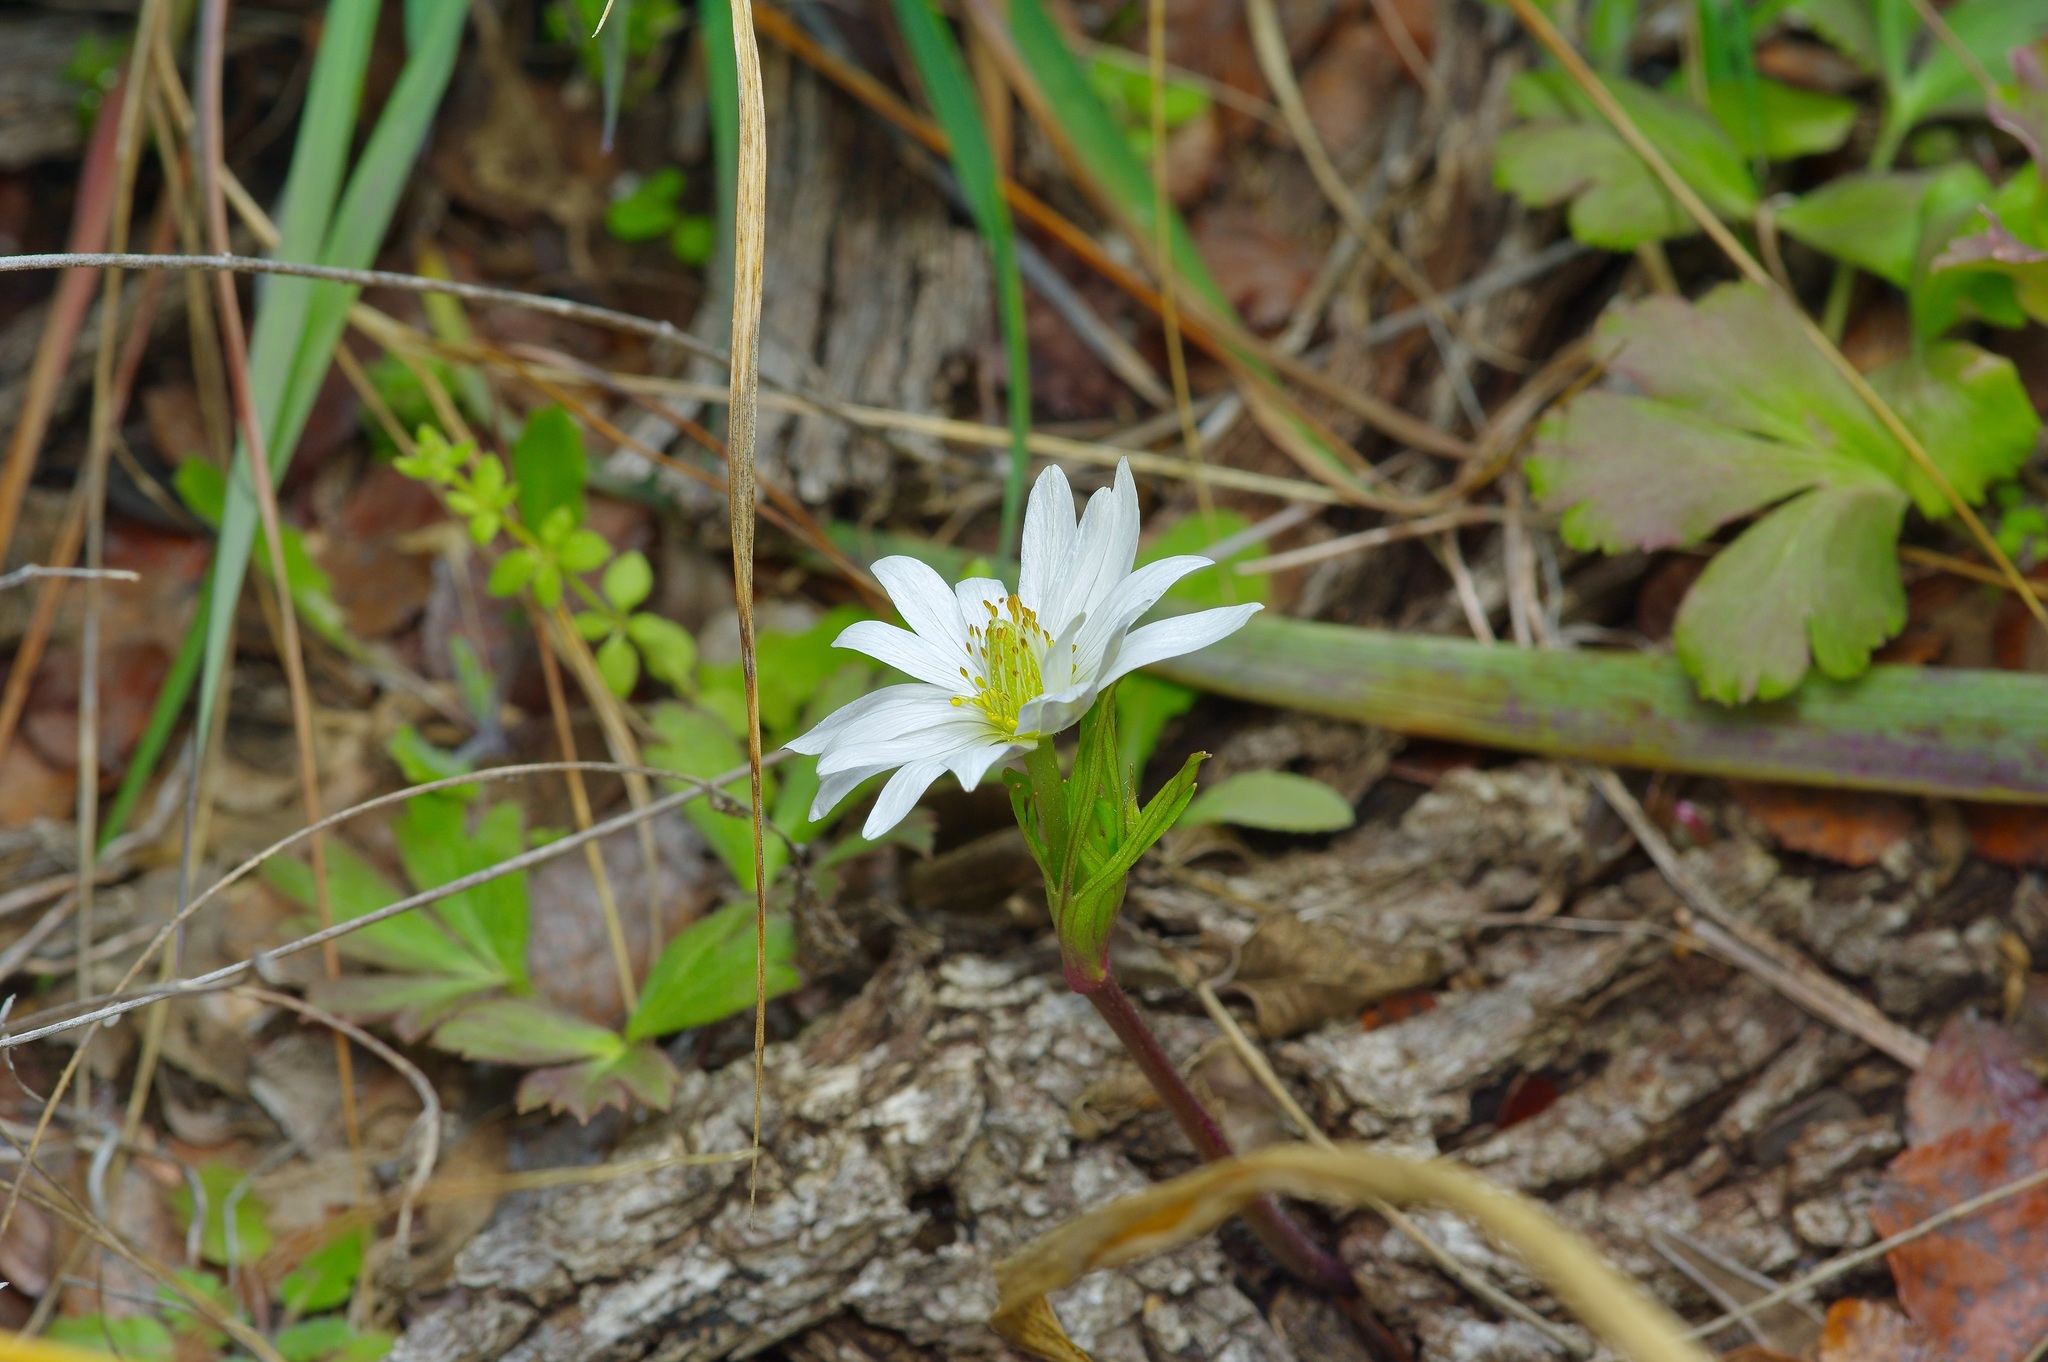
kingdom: Plantae
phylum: Tracheophyta
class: Magnoliopsida
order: Ranunculales
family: Ranunculaceae
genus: Anemone
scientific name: Anemone berlandieri
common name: Ten-petal anemone
